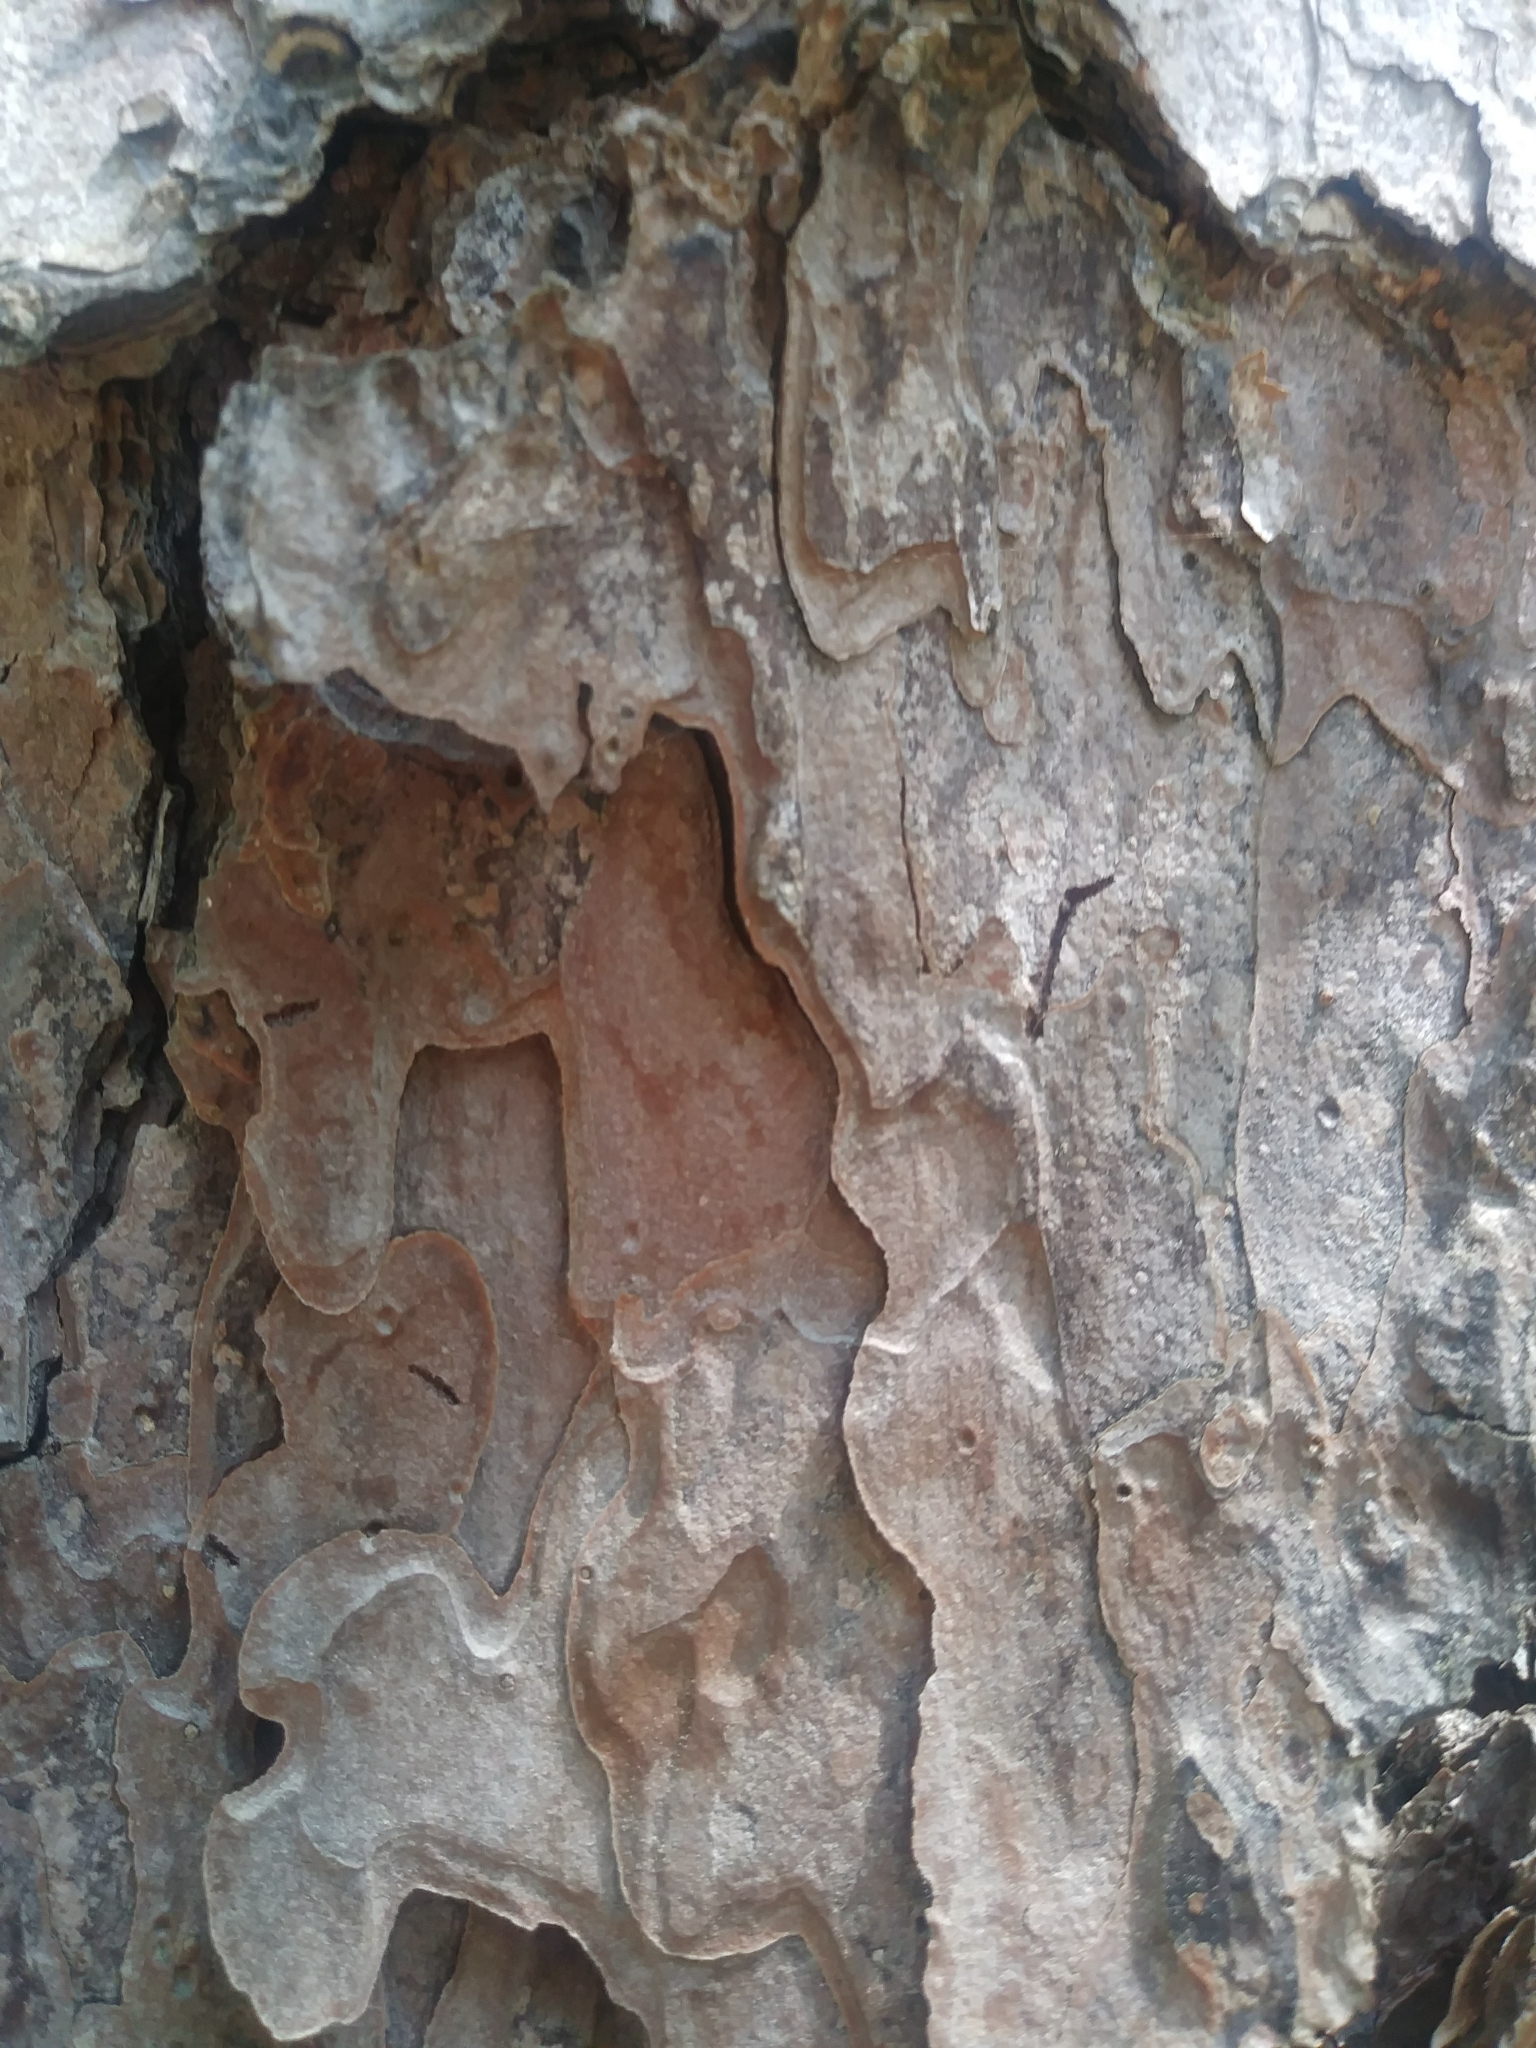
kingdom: Plantae
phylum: Tracheophyta
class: Pinopsida
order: Pinales
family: Pinaceae
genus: Pinus
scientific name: Pinus echinata
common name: Shortleaf pine
